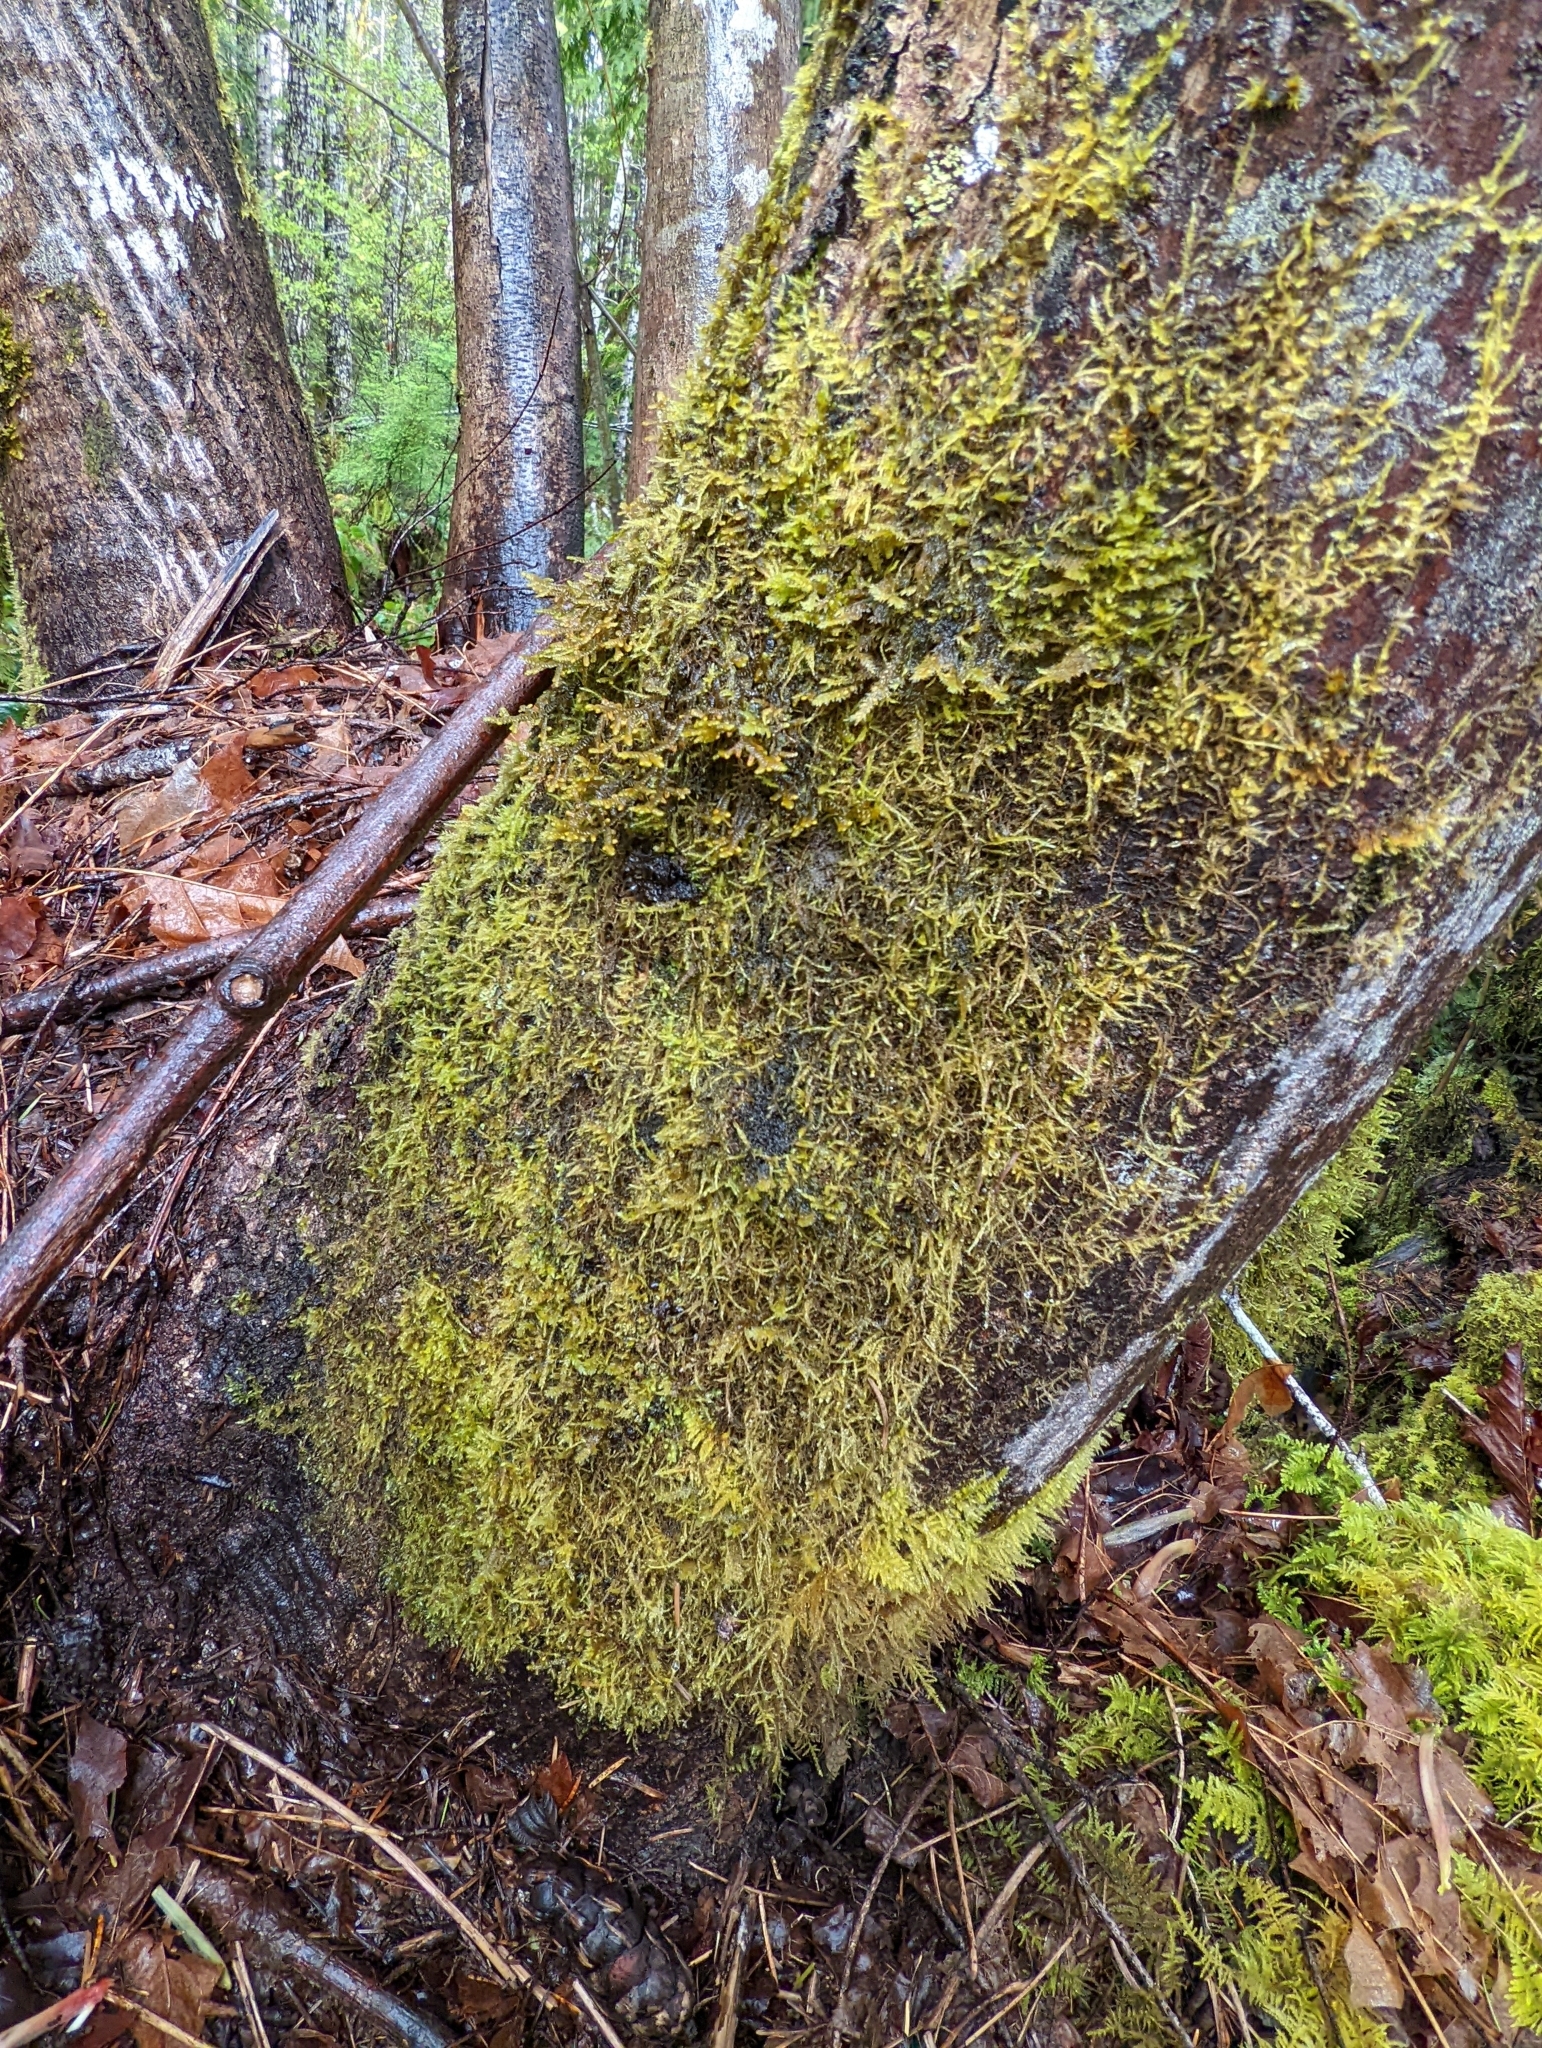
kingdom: Fungi
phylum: Ascomycota
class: Lecanoromycetes
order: Peltigerales
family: Collemataceae
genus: Scytinium
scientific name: Scytinium polycarpum
